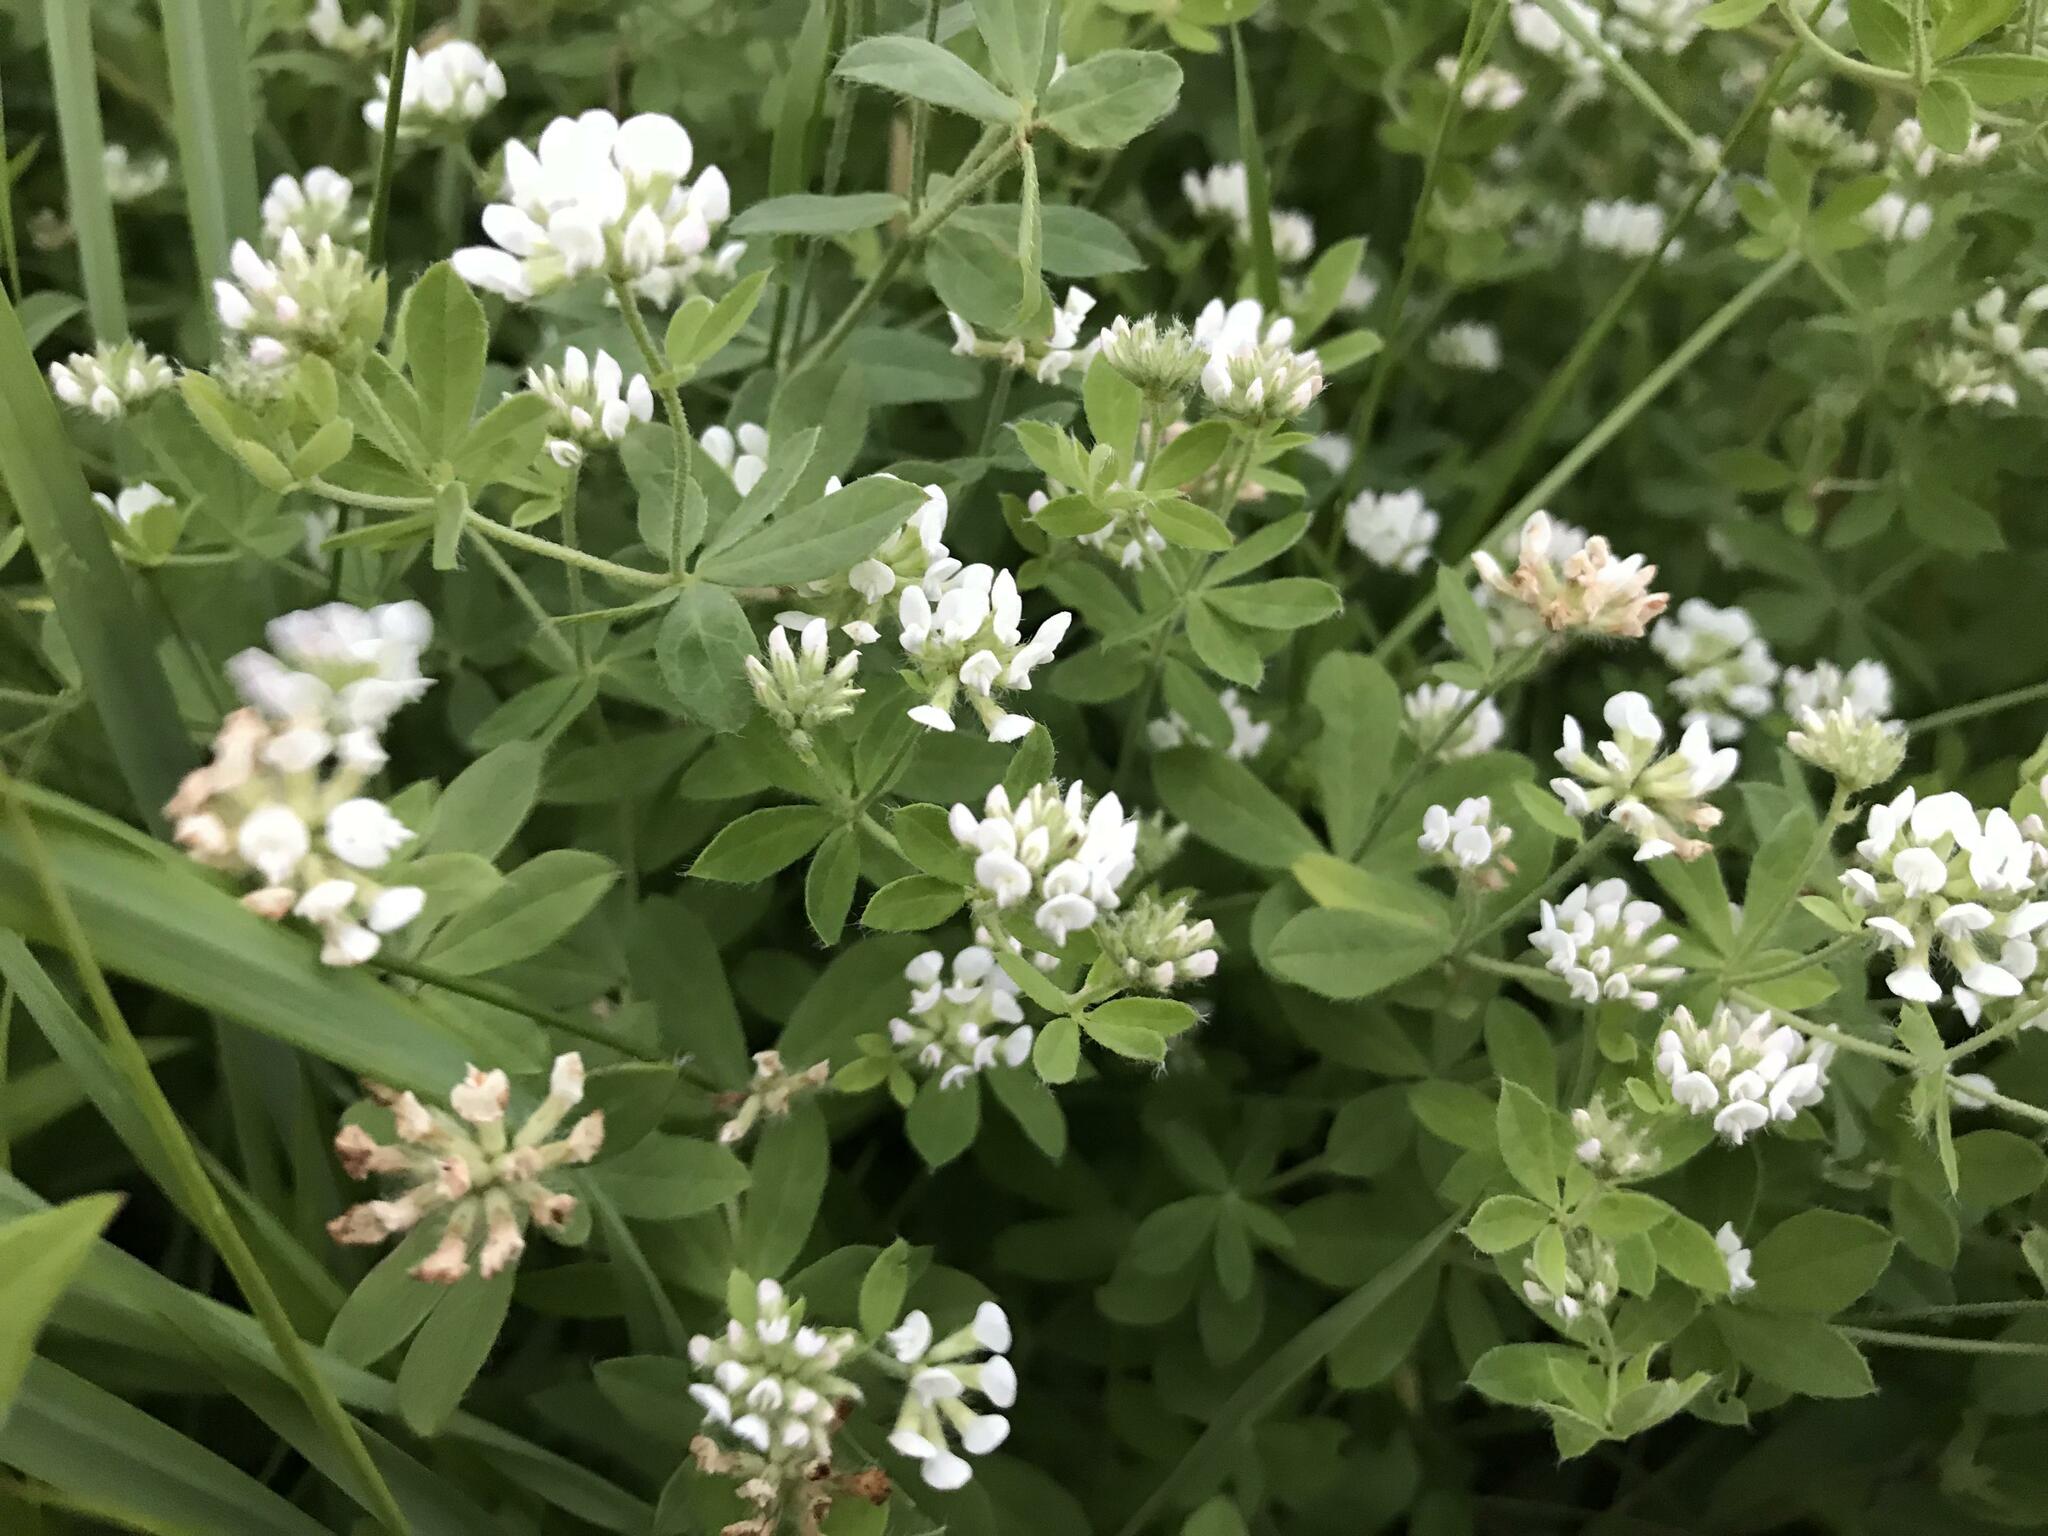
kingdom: Plantae
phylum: Tracheophyta
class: Magnoliopsida
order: Fabales
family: Fabaceae
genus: Lotus
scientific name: Lotus herbaceus
